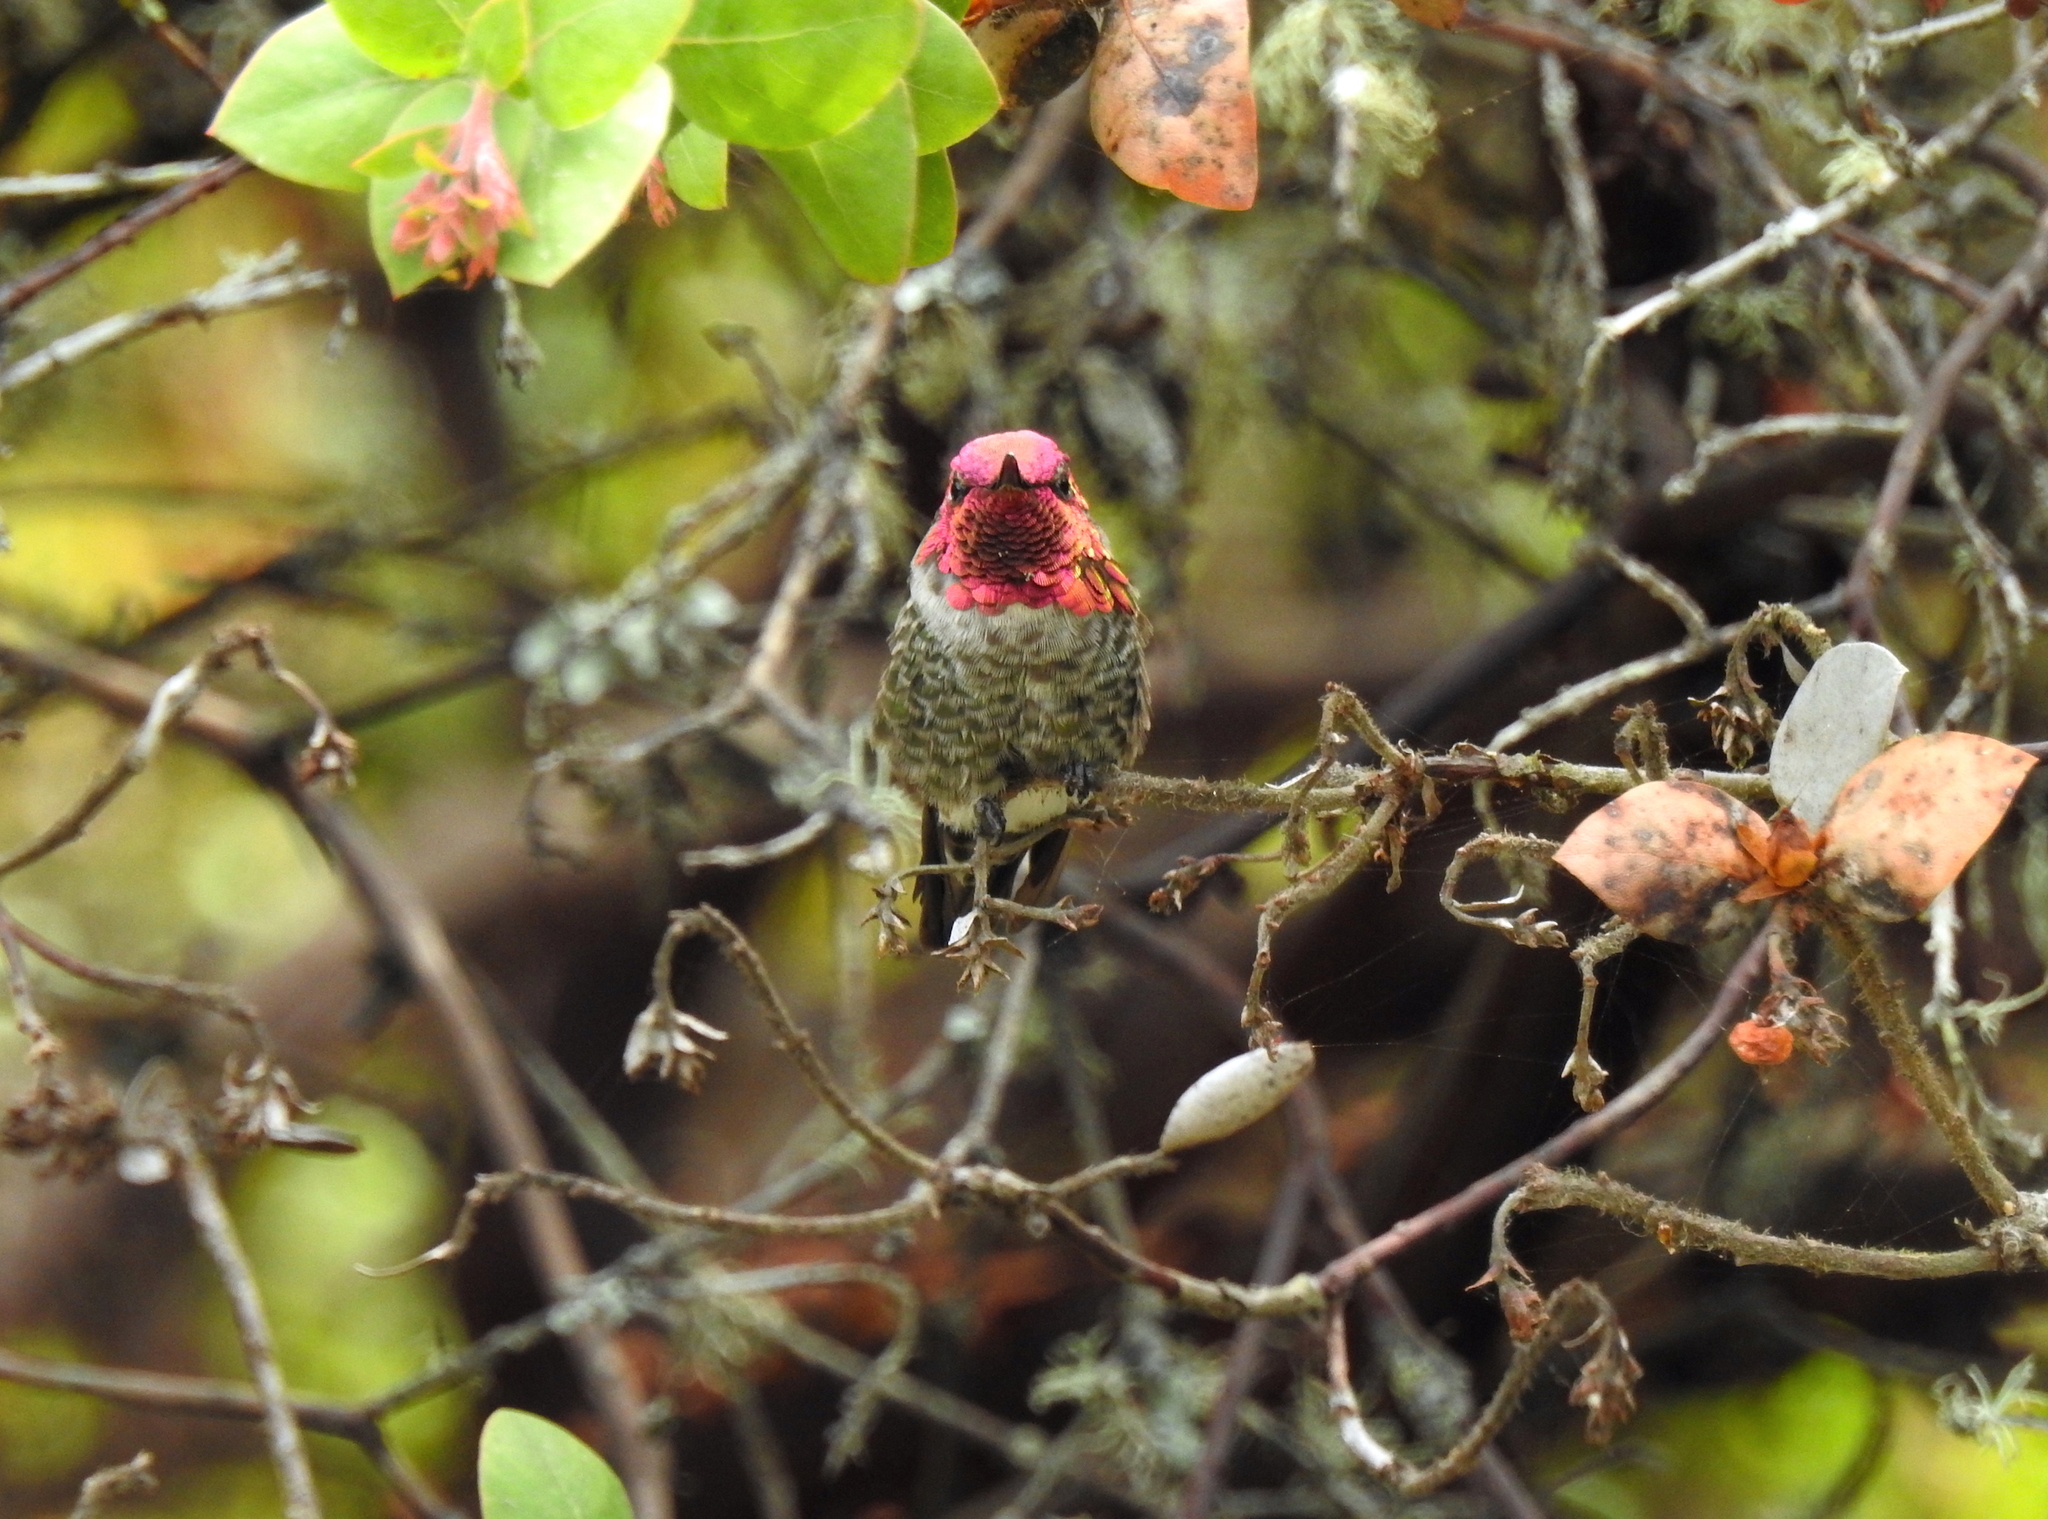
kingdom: Animalia
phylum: Chordata
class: Aves
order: Apodiformes
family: Trochilidae
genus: Calypte
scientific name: Calypte anna
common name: Anna's hummingbird
